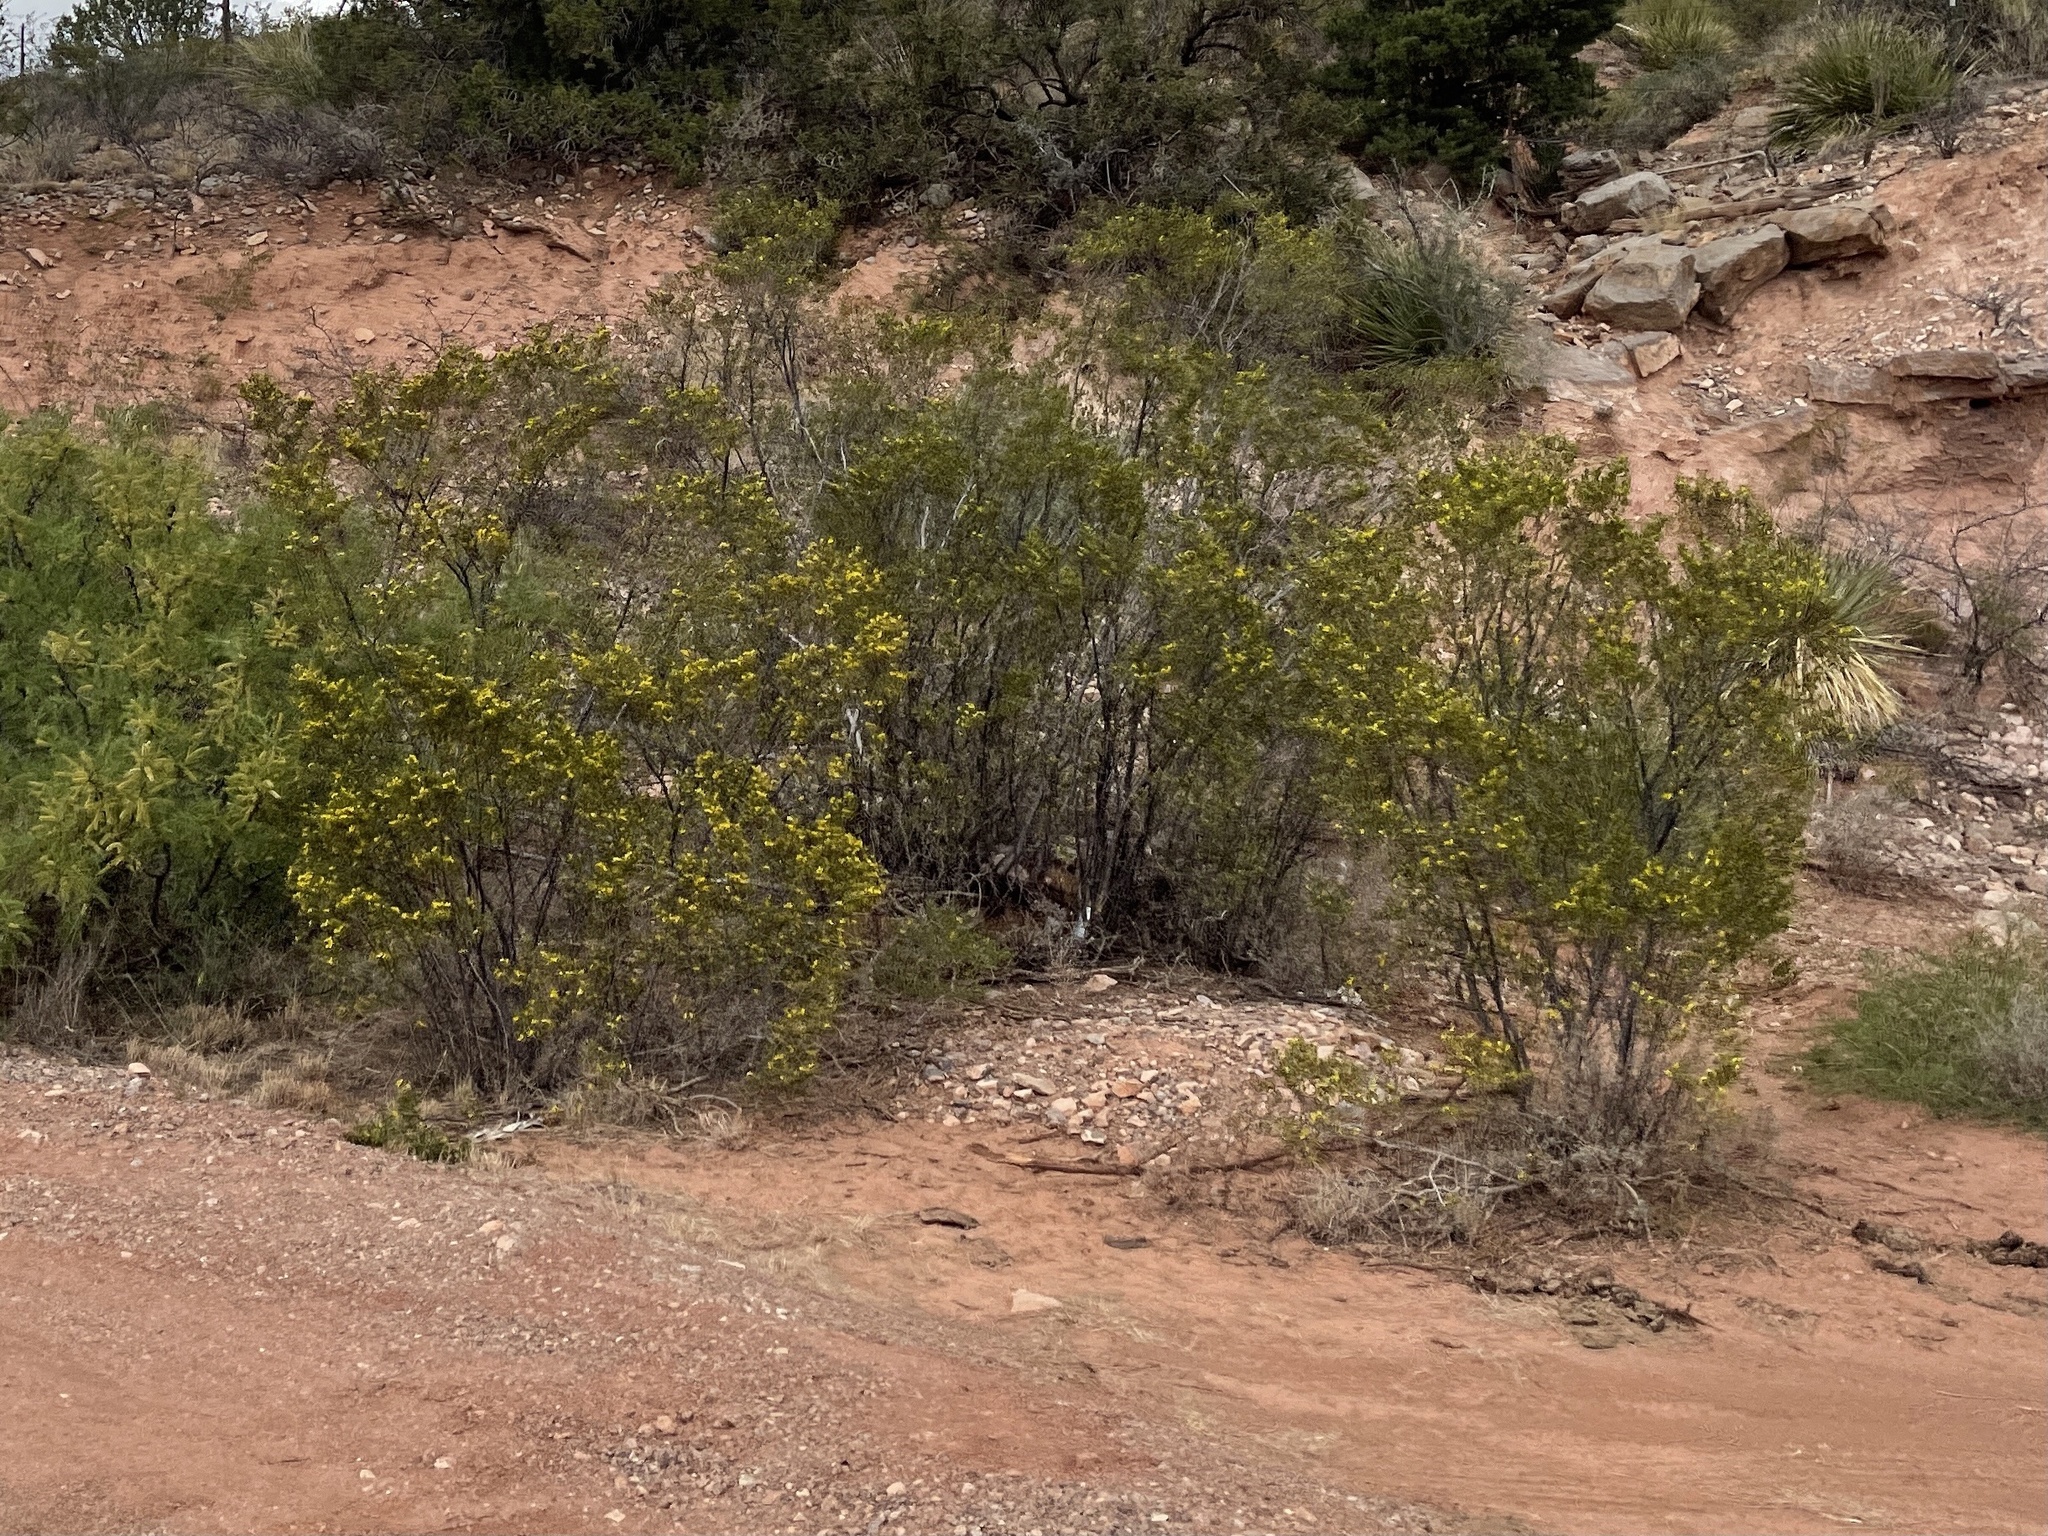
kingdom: Plantae
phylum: Tracheophyta
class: Magnoliopsida
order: Zygophyllales
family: Zygophyllaceae
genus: Larrea
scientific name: Larrea tridentata
